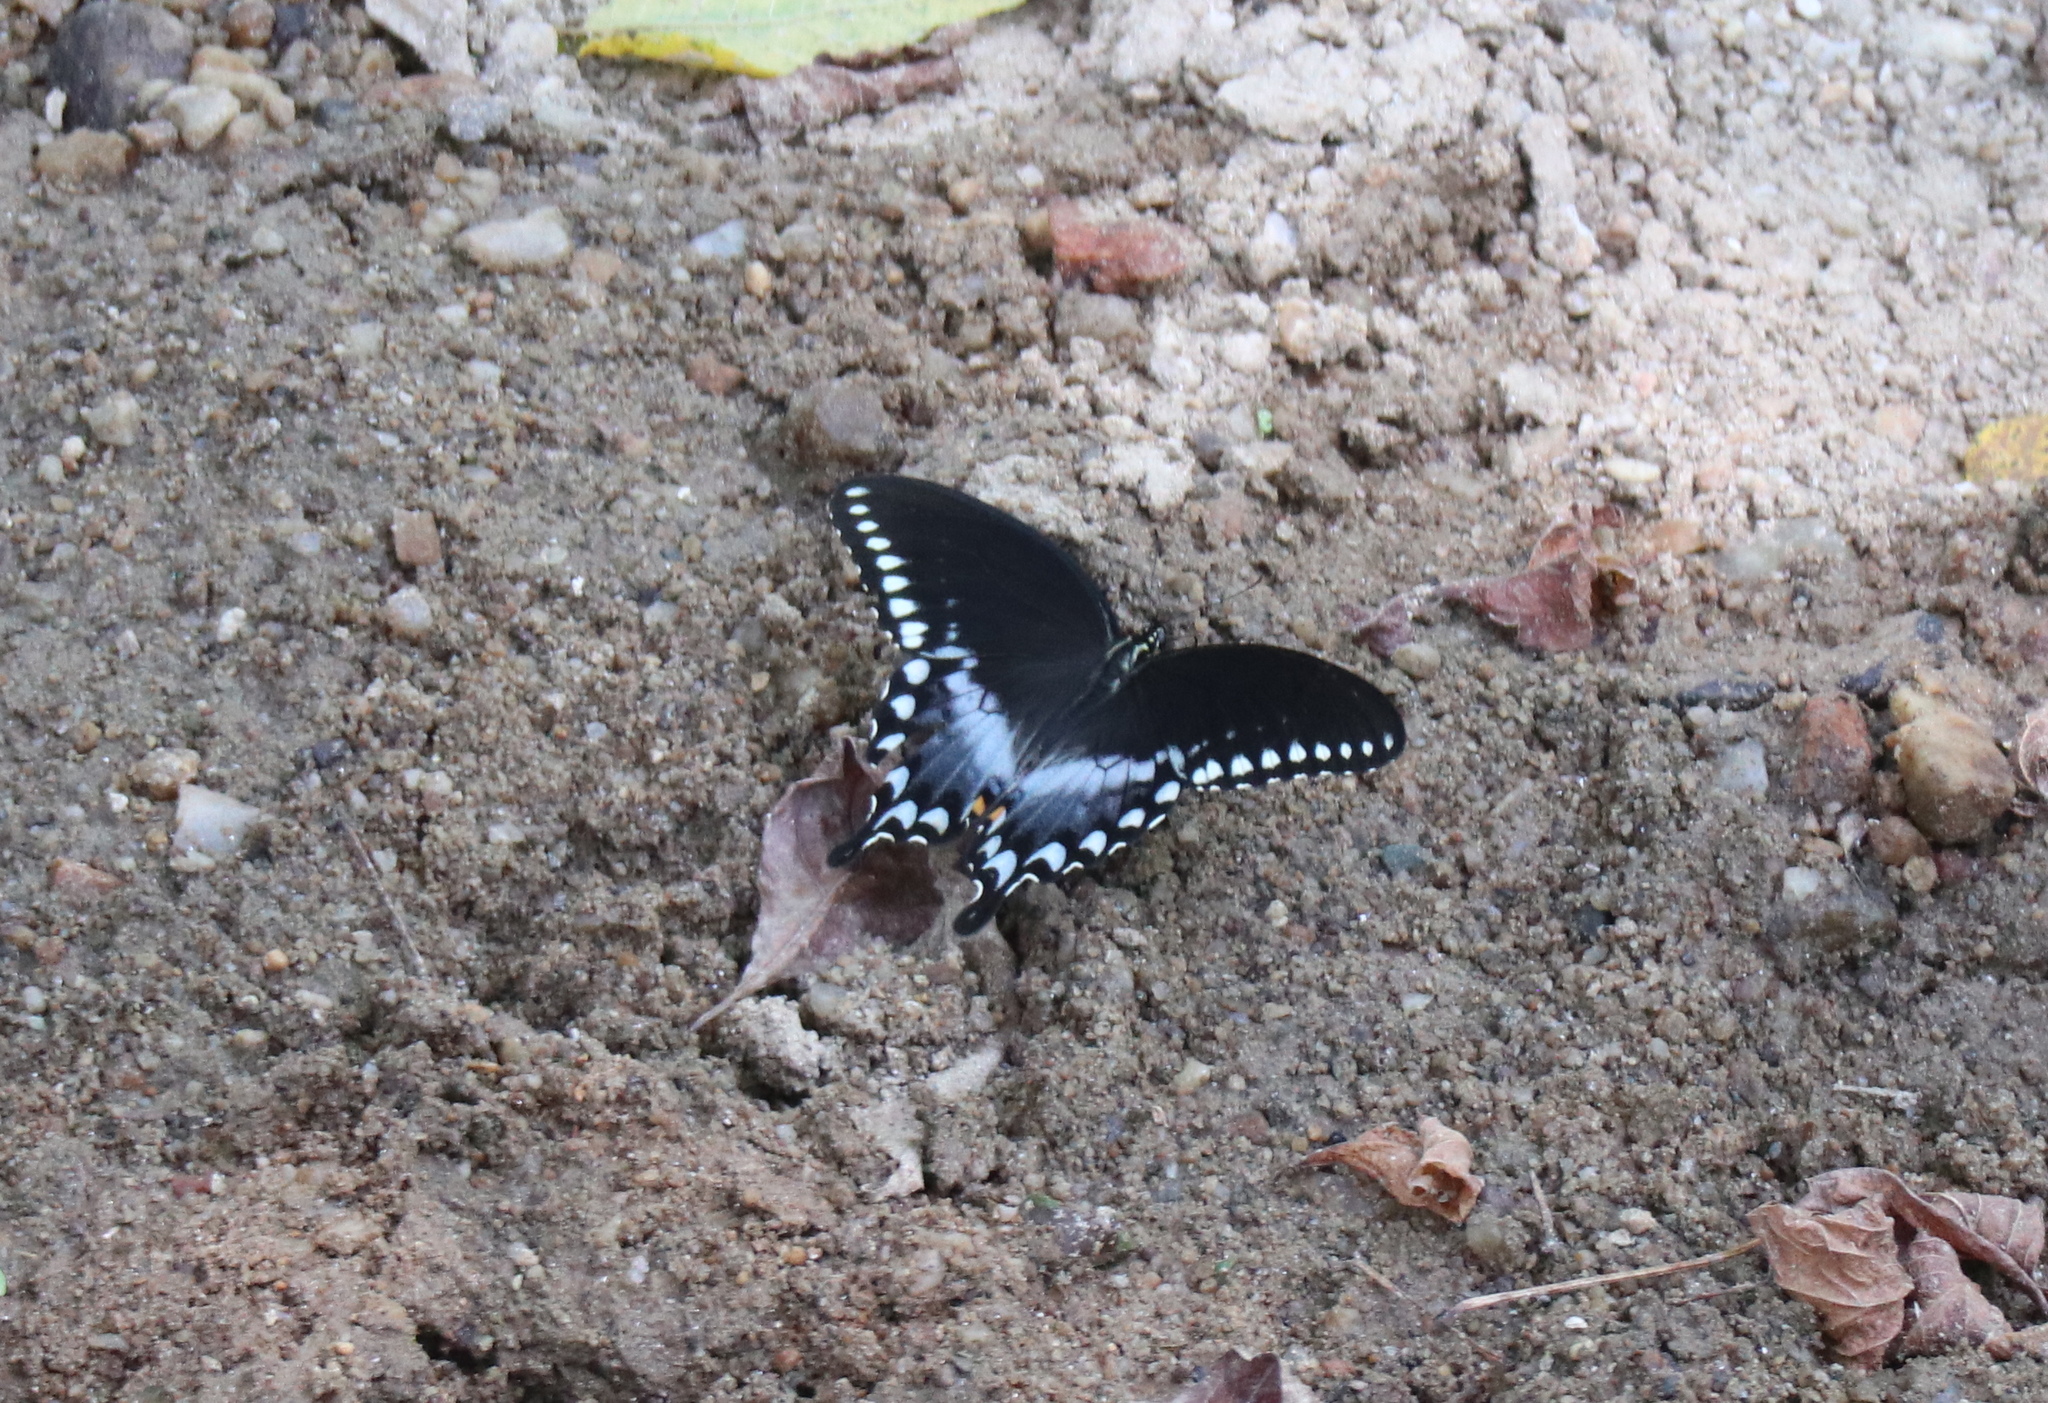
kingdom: Animalia
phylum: Arthropoda
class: Insecta
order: Lepidoptera
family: Papilionidae
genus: Papilio
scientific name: Papilio troilus
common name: Spicebush swallowtail
